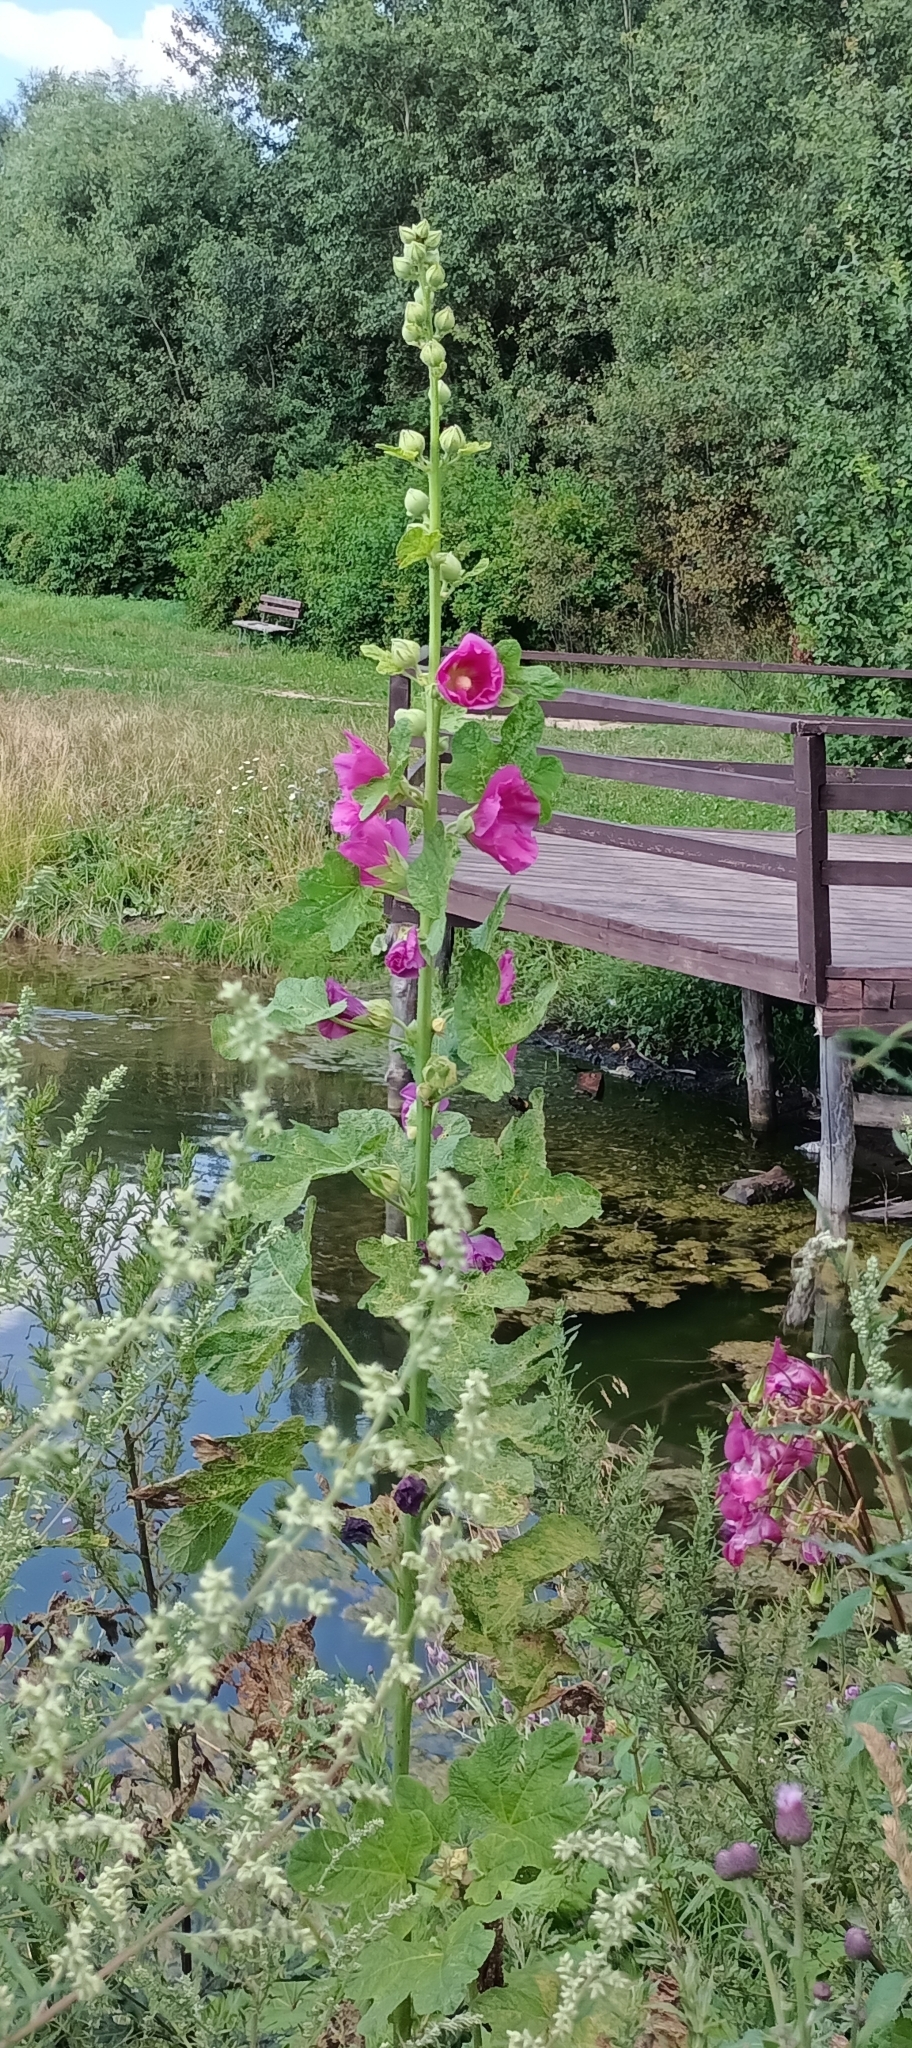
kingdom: Plantae
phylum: Tracheophyta
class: Magnoliopsida
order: Malvales
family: Malvaceae
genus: Alcea
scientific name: Alcea rosea
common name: Hollyhock
